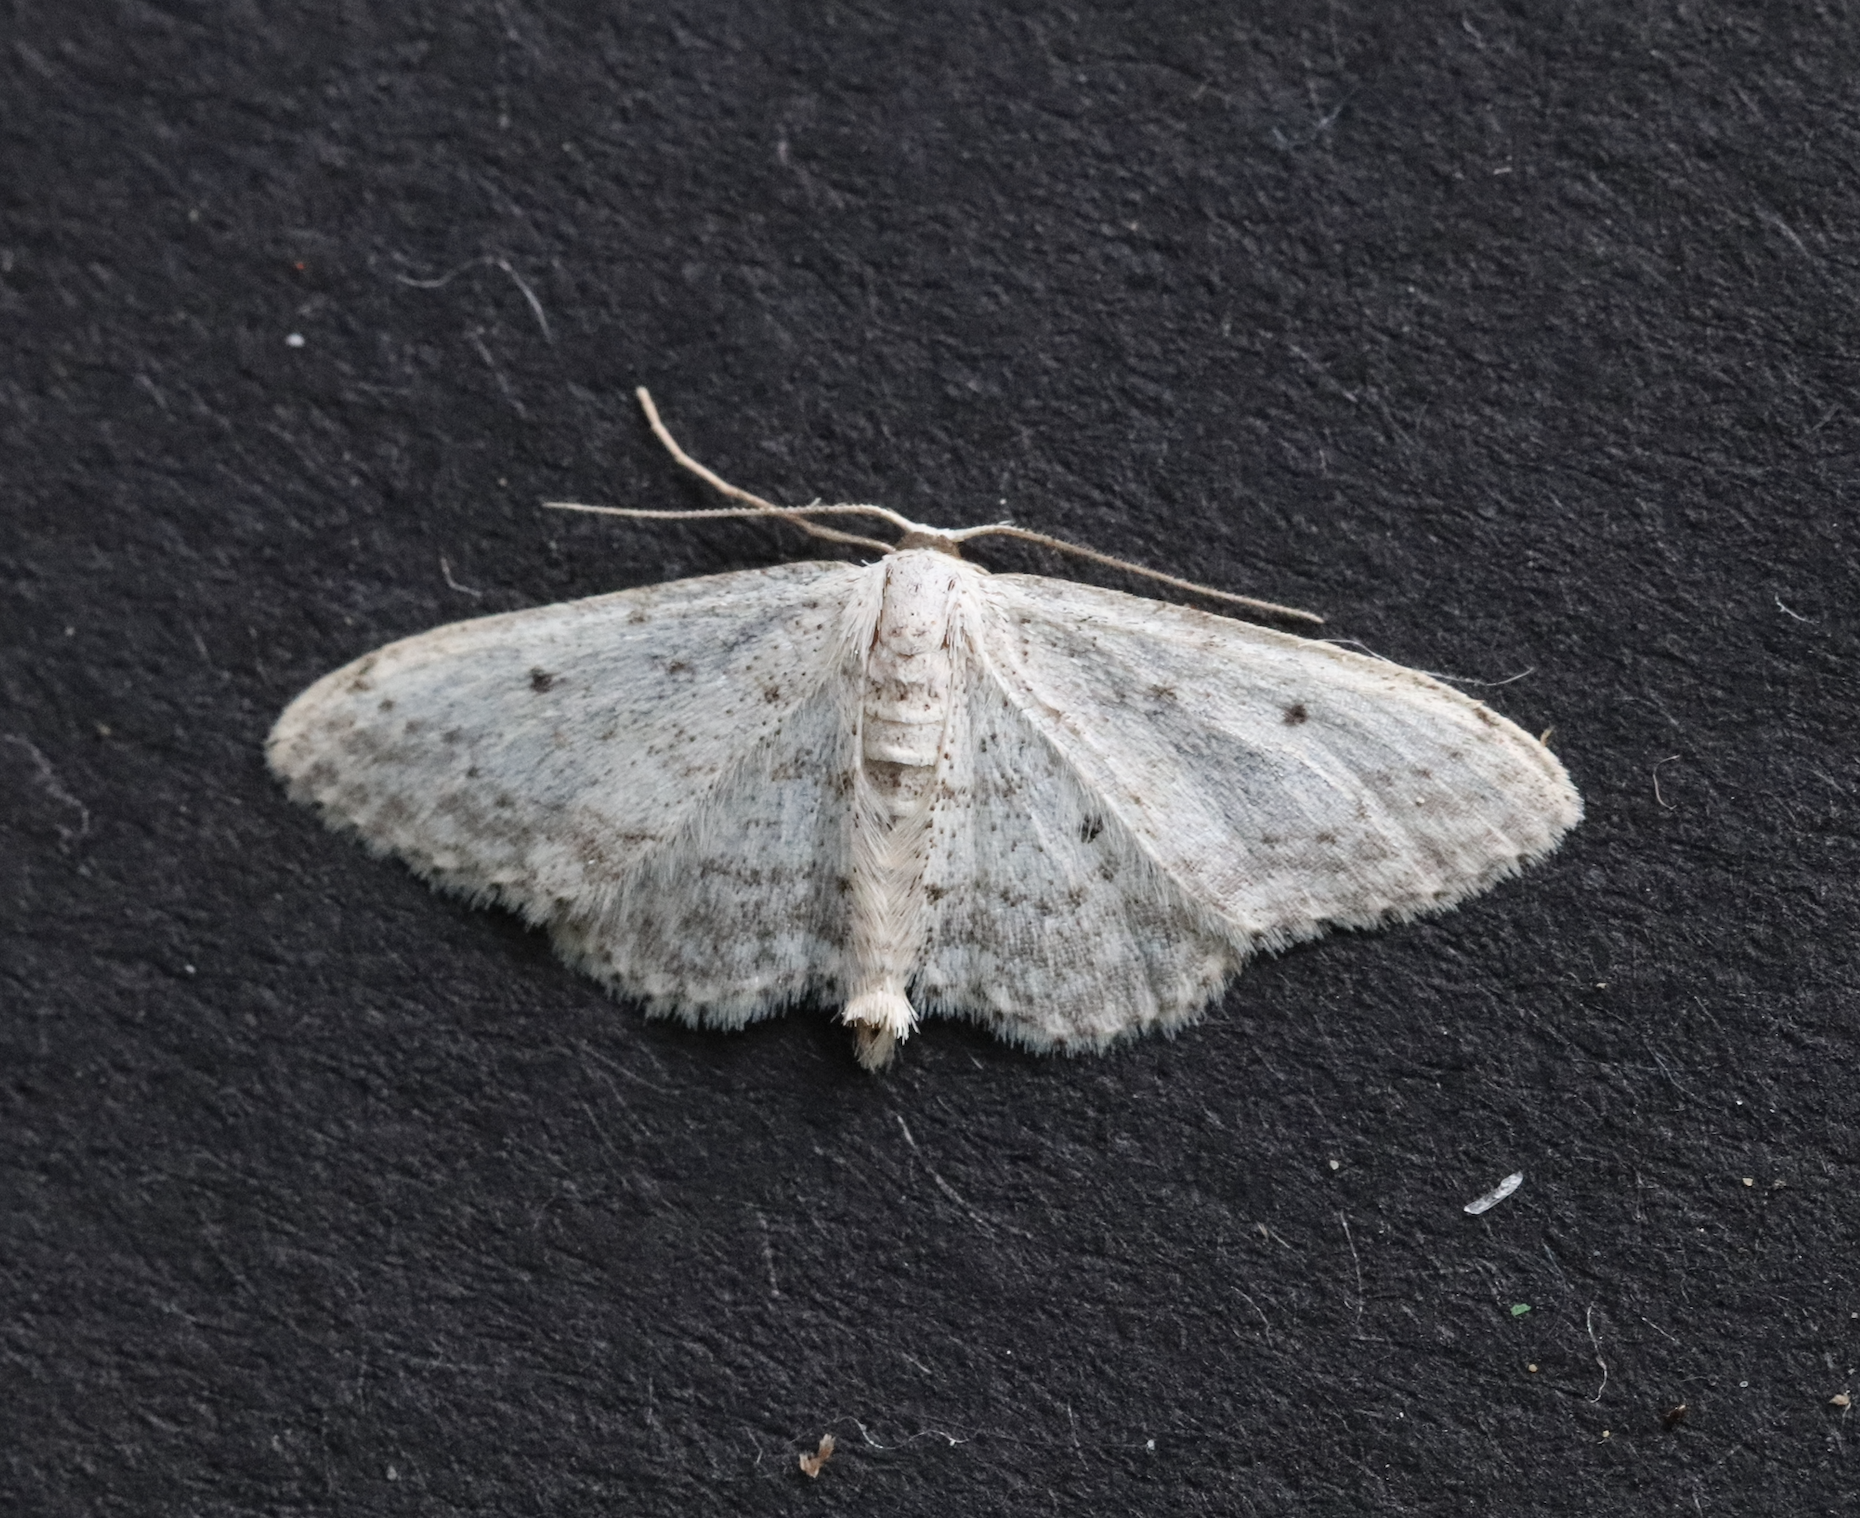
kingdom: Animalia
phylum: Arthropoda
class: Insecta
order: Lepidoptera
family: Geometridae
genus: Idaea
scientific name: Idaea seriata
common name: Small dusty wave
